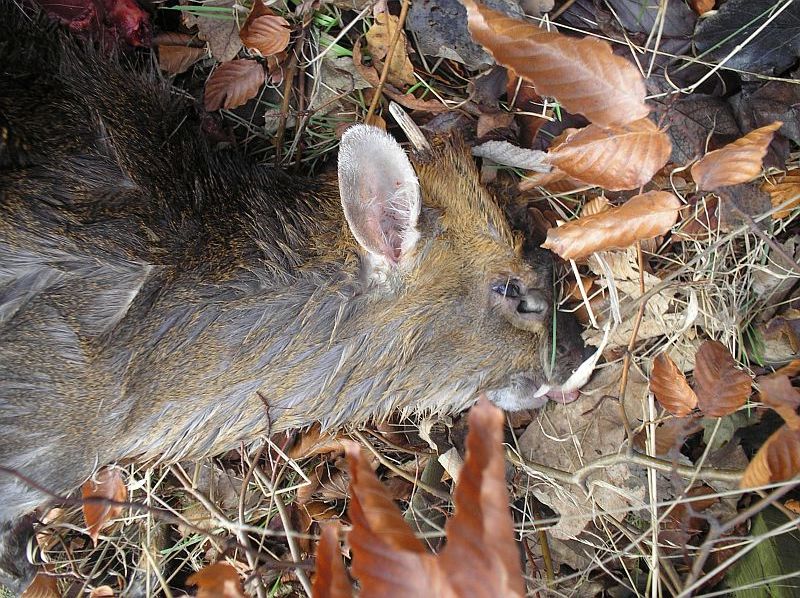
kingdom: Animalia
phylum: Chordata
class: Mammalia
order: Artiodactyla
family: Cervidae
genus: Muntiacus
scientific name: Muntiacus reevesi
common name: Reeves' muntjac
